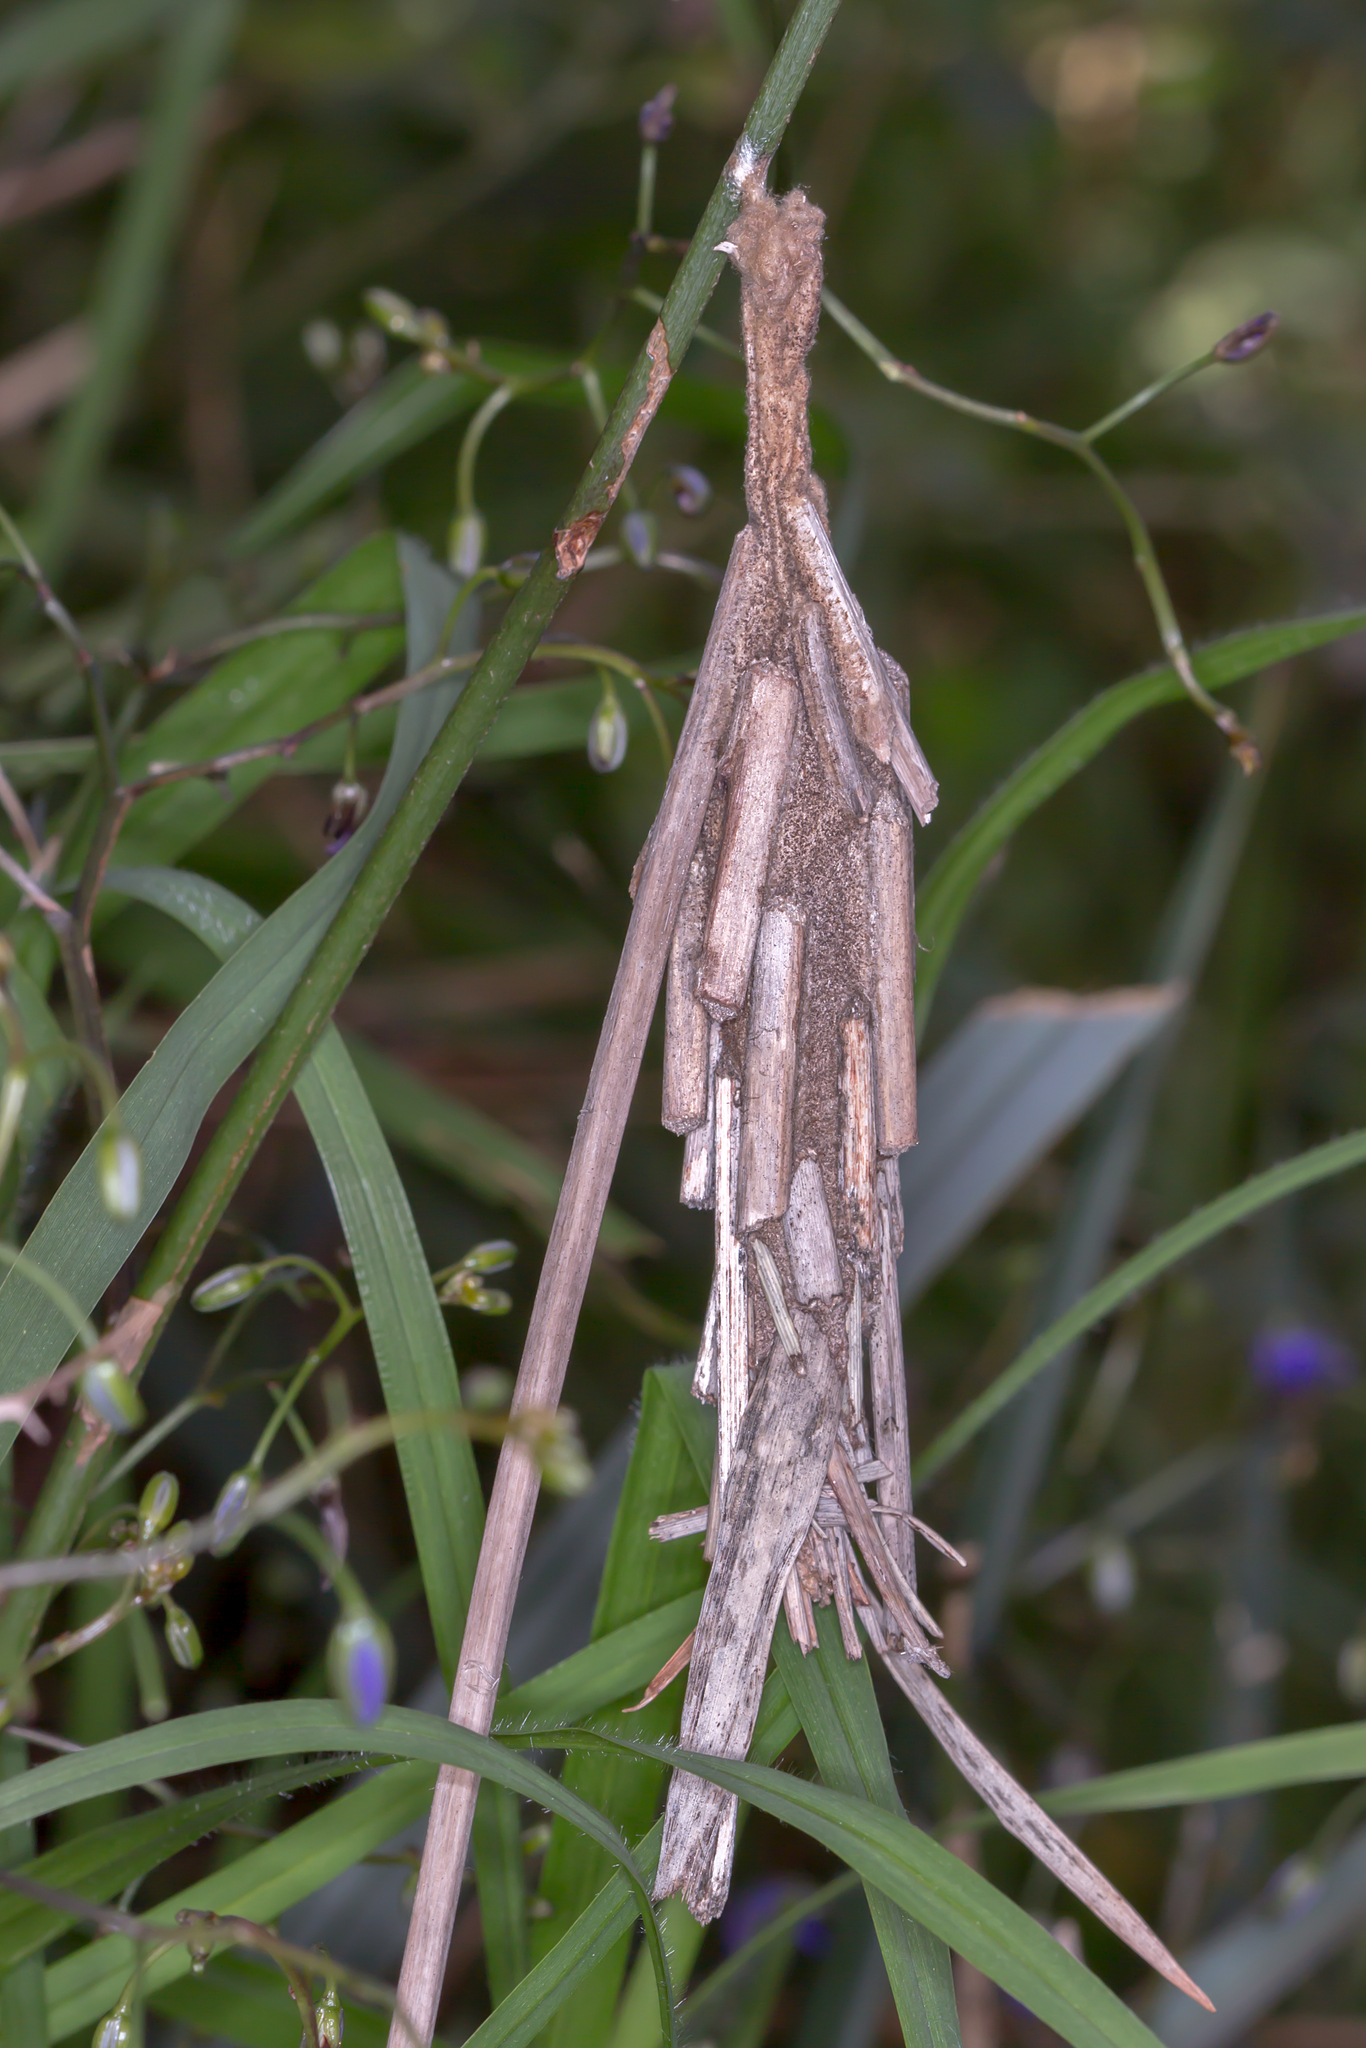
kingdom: Animalia
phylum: Arthropoda
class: Insecta
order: Lepidoptera
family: Psychidae
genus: Metura
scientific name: Metura elongatus
